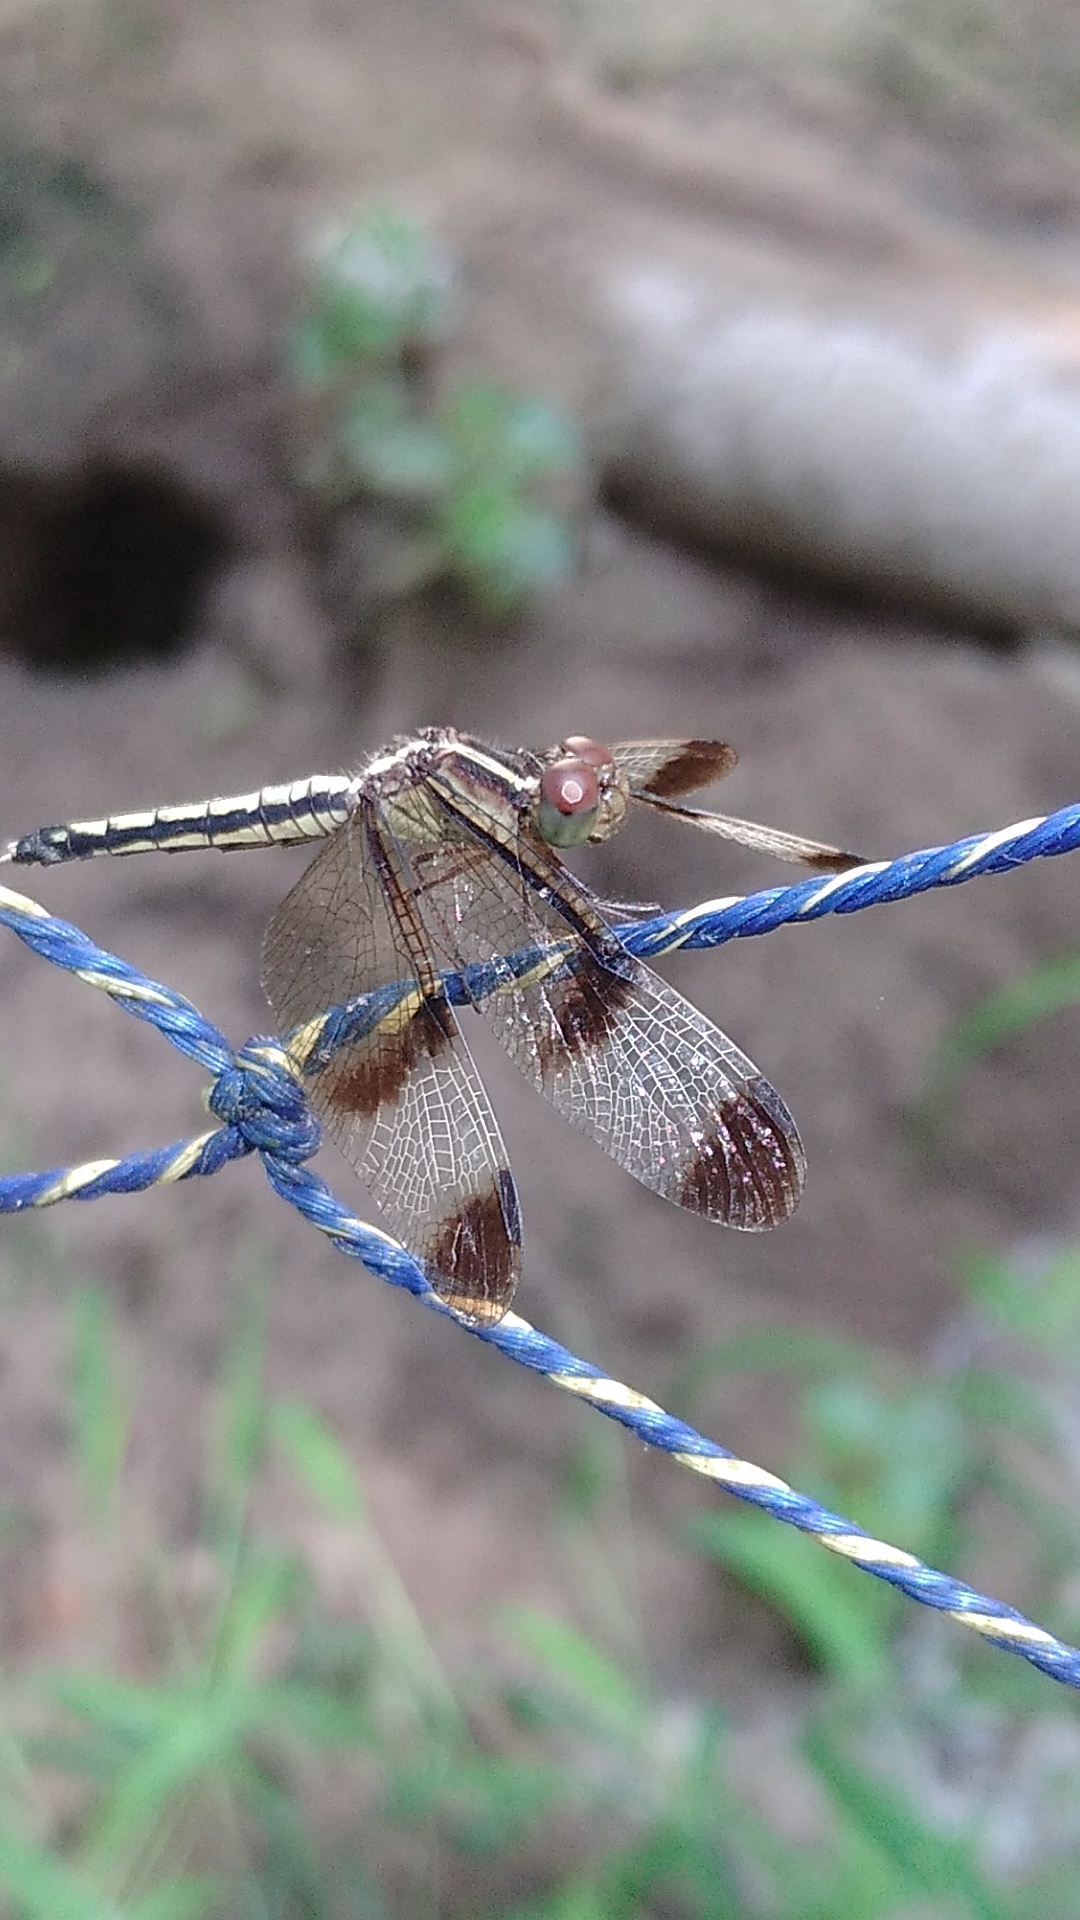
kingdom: Animalia
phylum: Arthropoda
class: Insecta
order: Odonata
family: Libellulidae
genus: Neurothemis
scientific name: Neurothemis tullia
